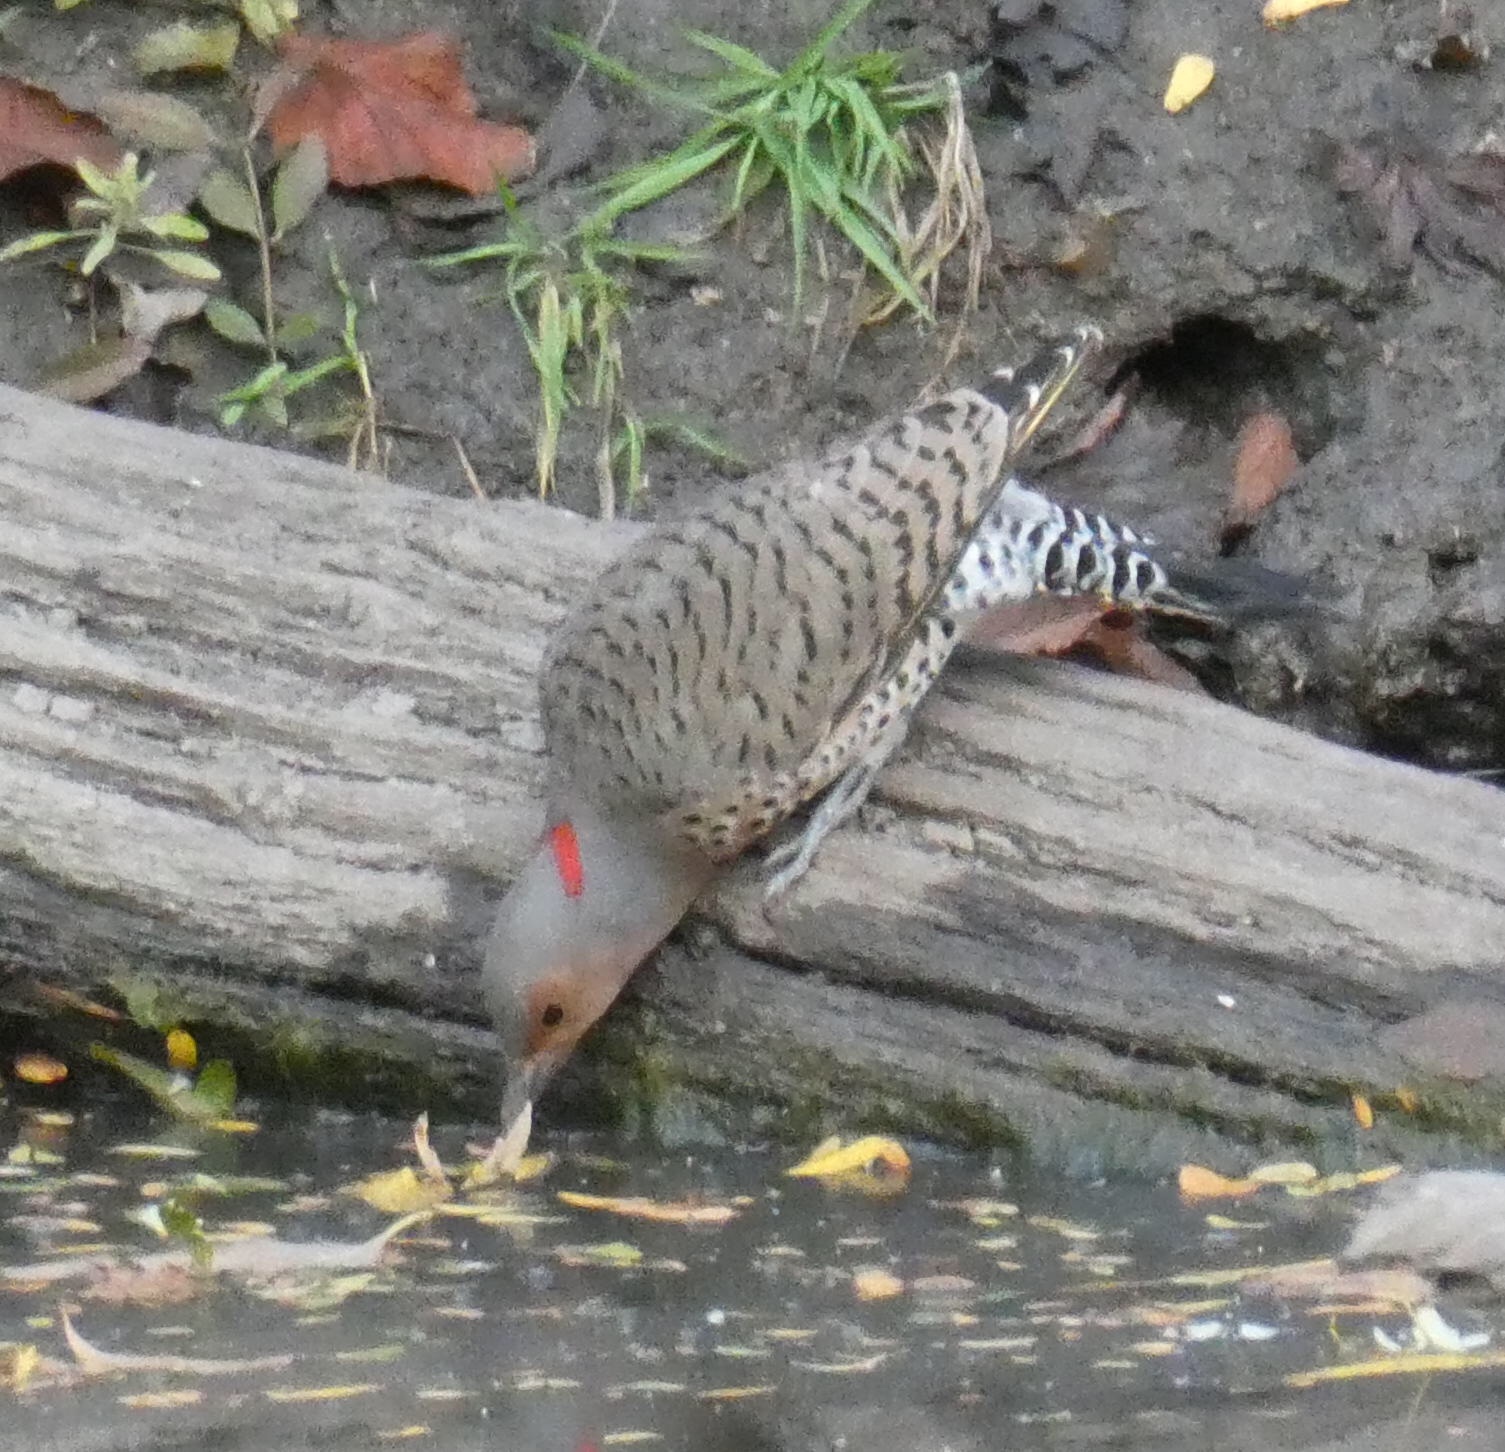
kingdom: Animalia
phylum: Chordata
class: Aves
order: Piciformes
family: Picidae
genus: Colaptes
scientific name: Colaptes auratus
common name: Northern flicker
